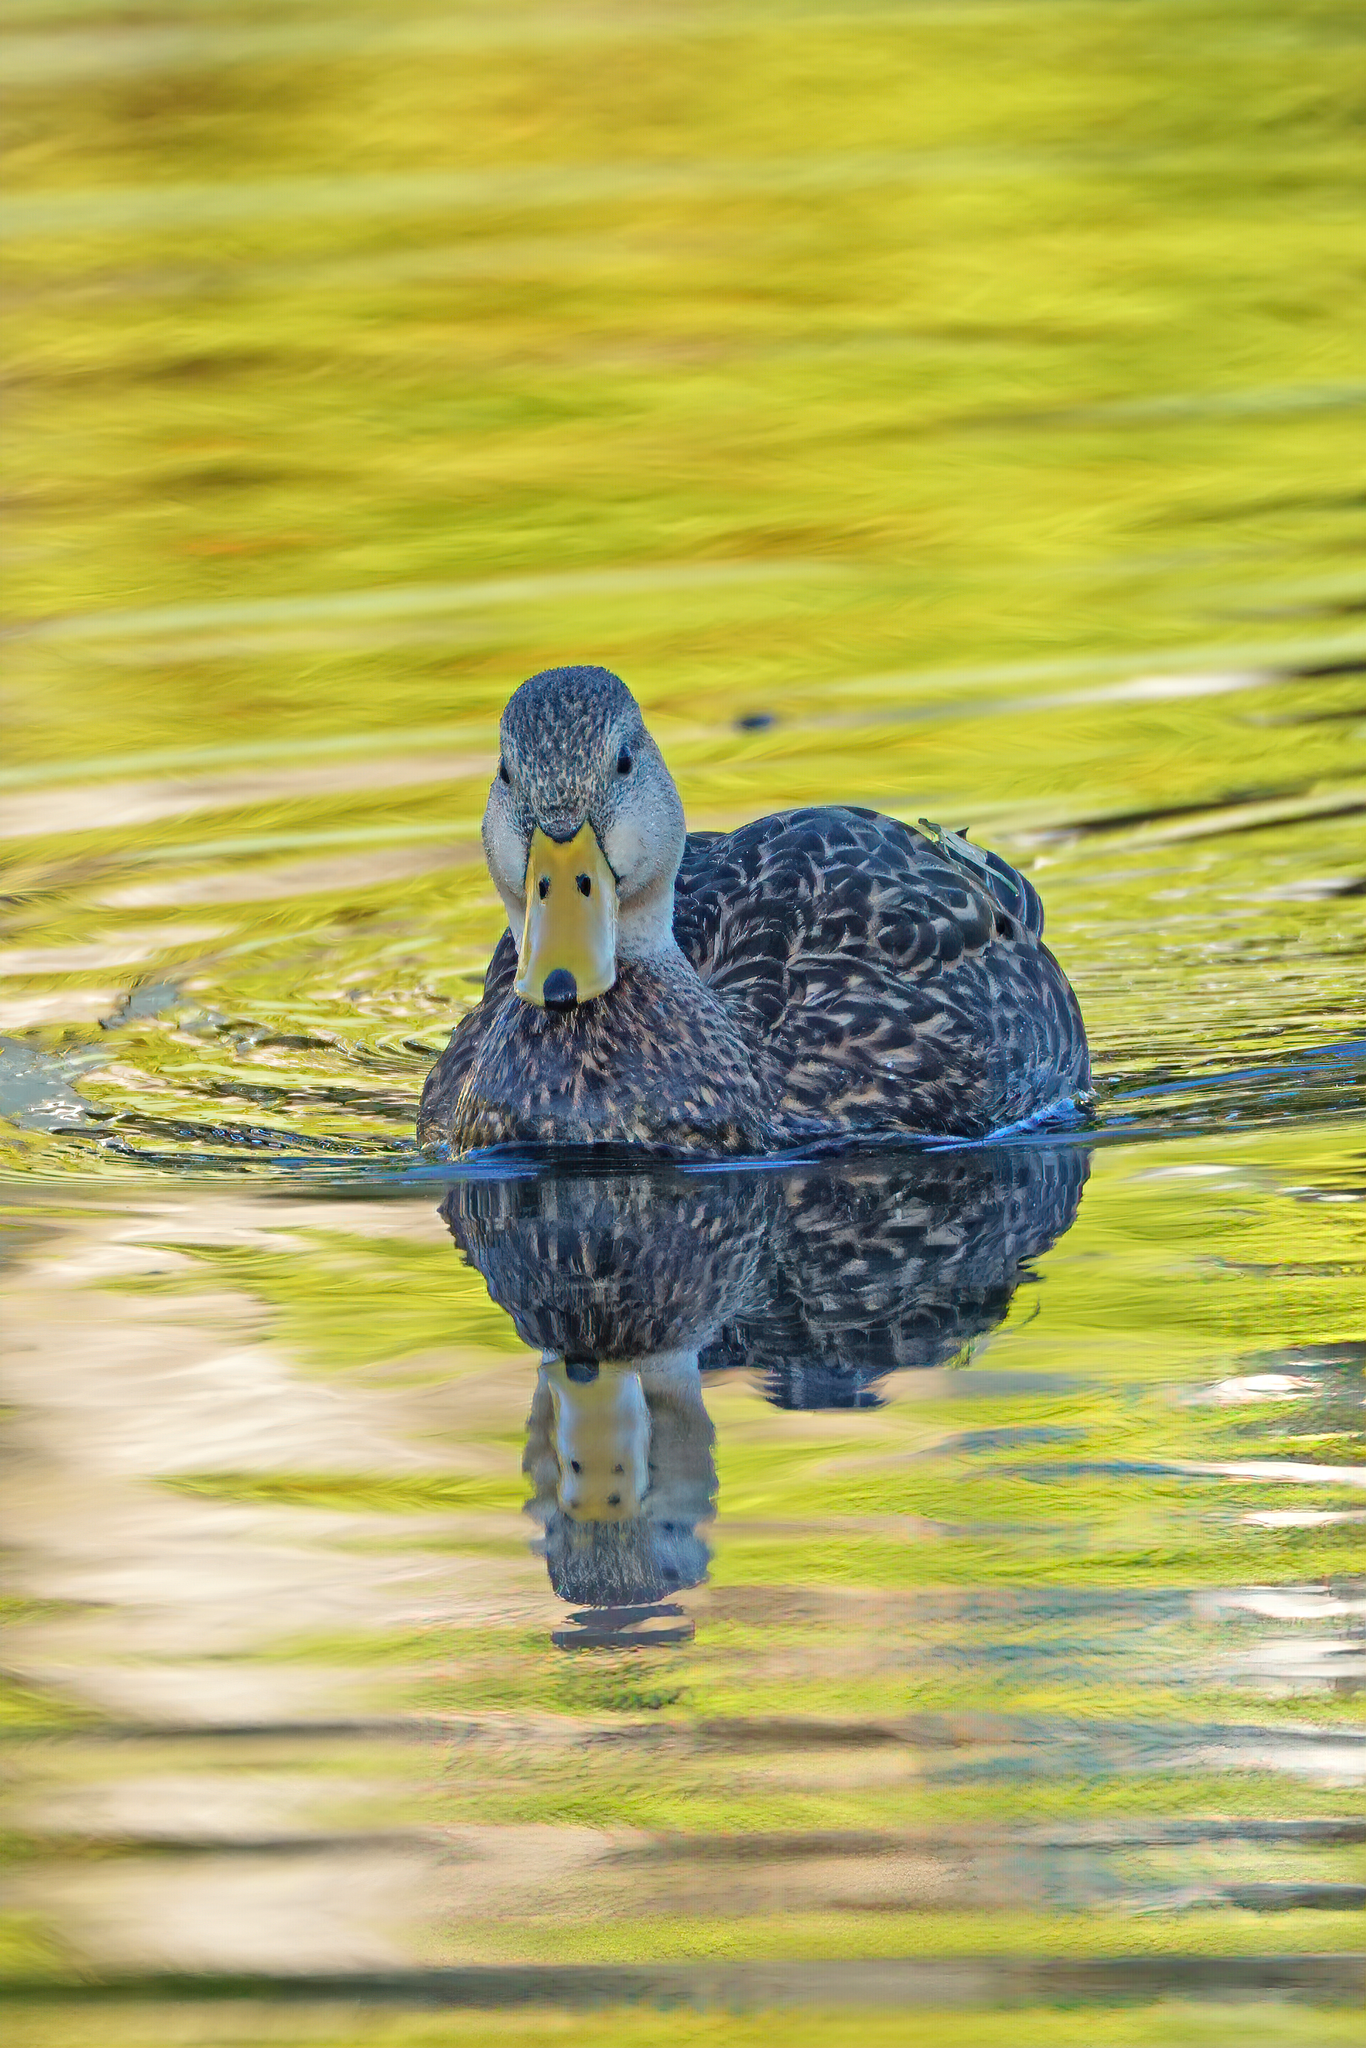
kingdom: Animalia
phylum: Chordata
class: Aves
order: Anseriformes
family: Anatidae
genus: Anas
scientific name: Anas
